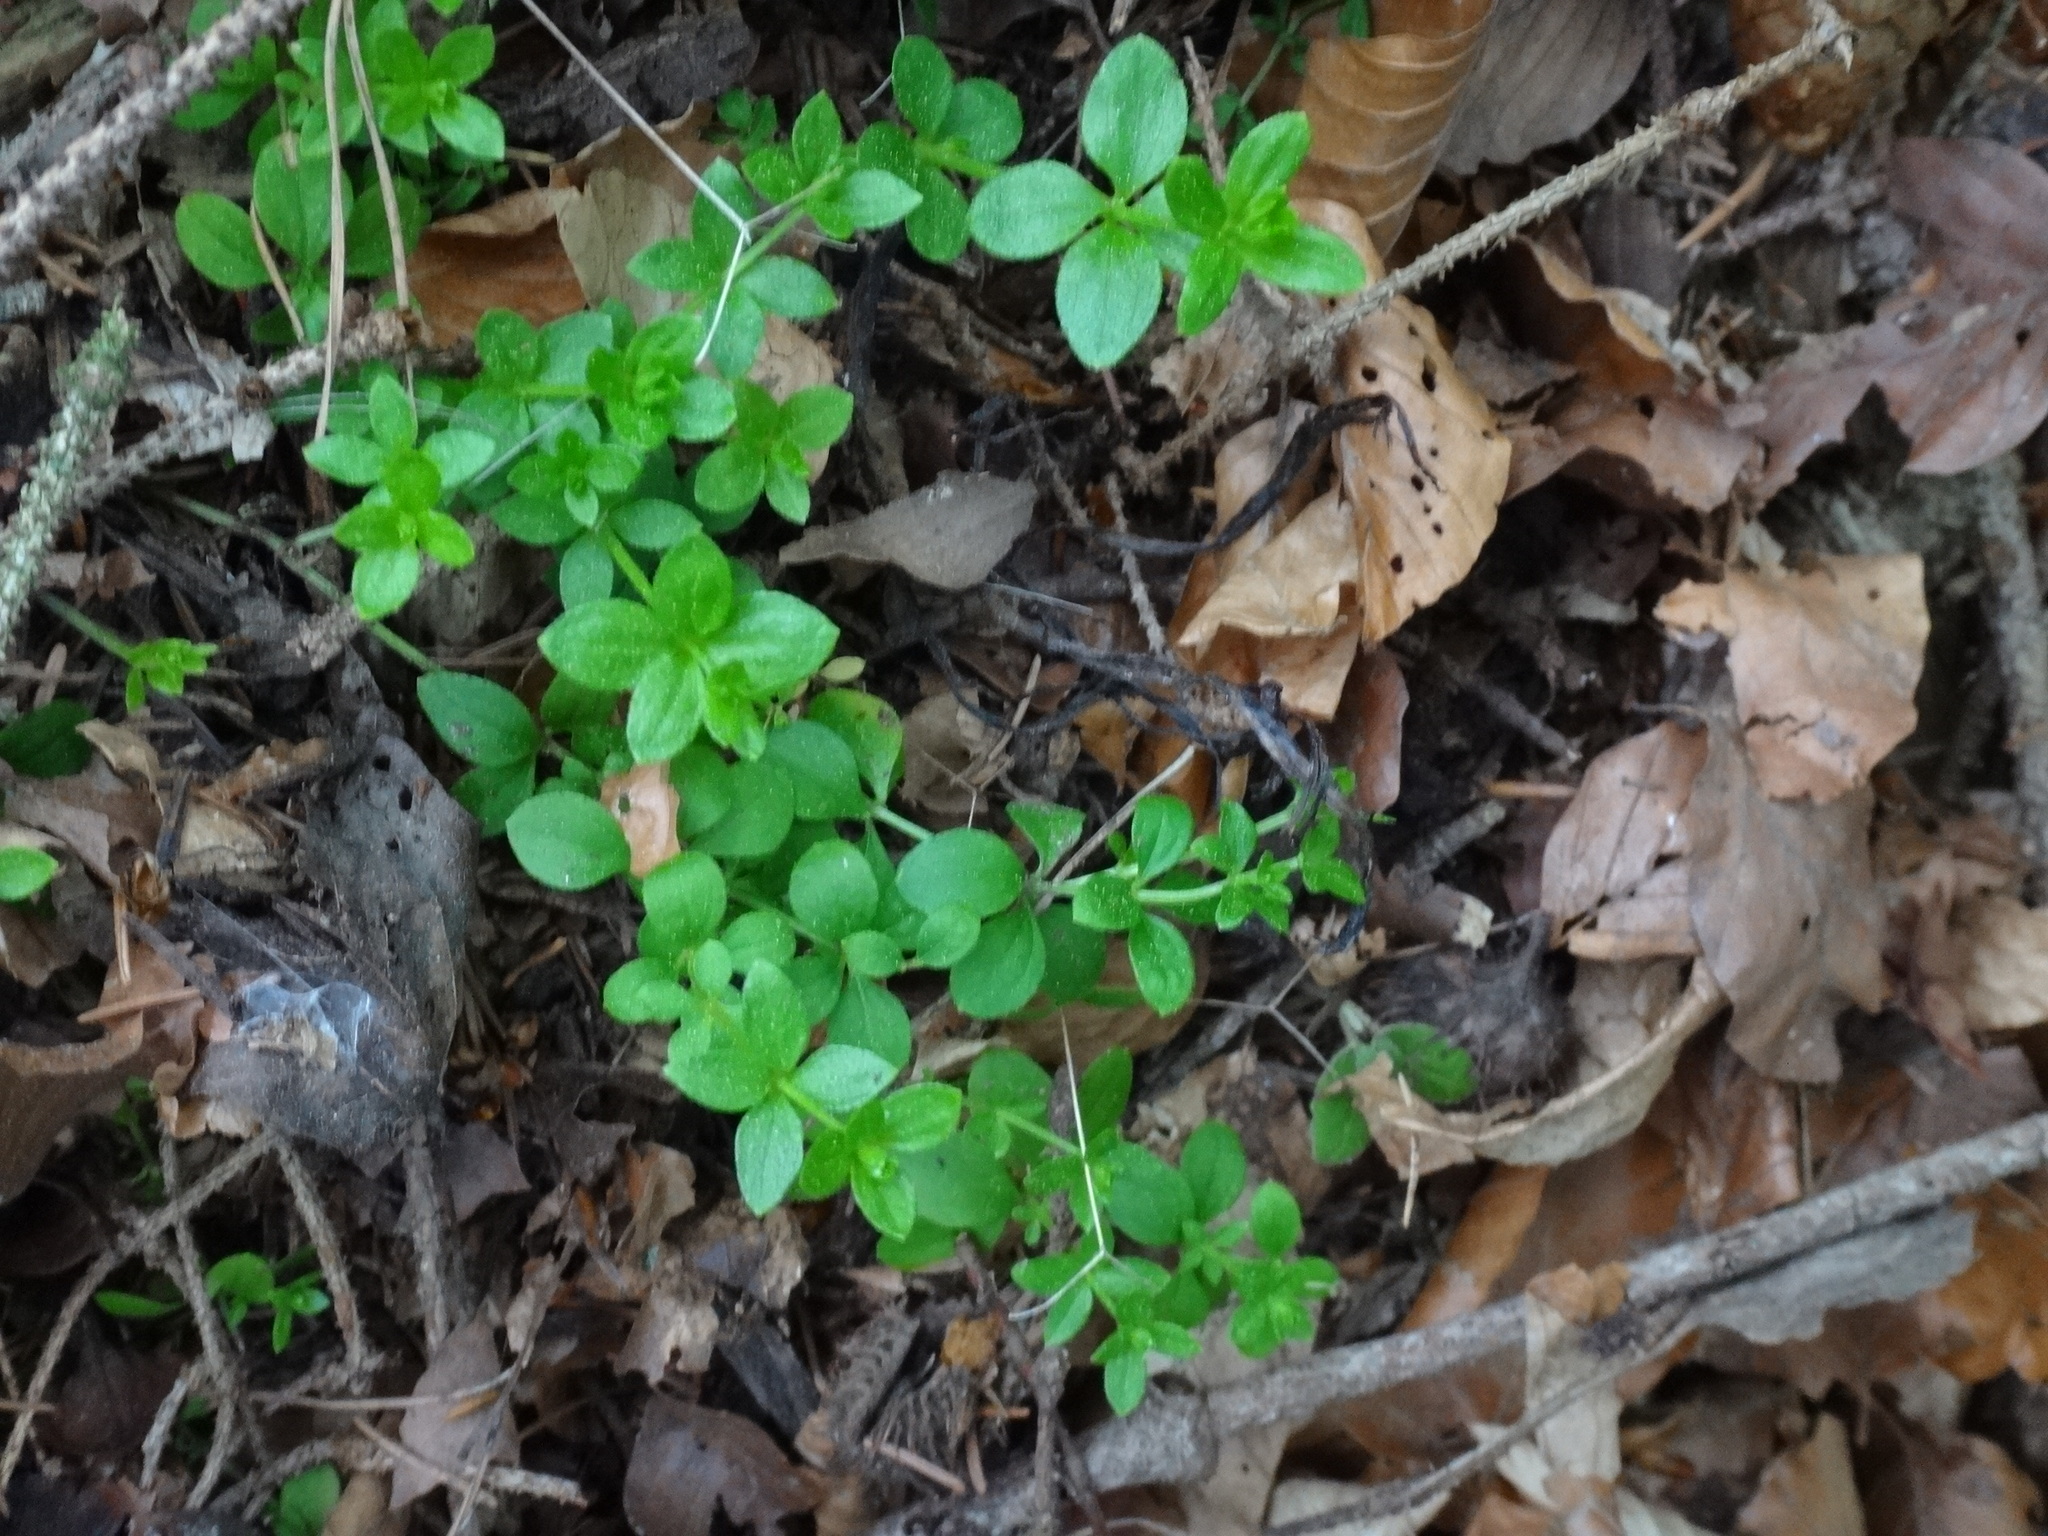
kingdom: Plantae
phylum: Tracheophyta
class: Magnoliopsida
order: Gentianales
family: Rubiaceae
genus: Galium
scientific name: Galium rotundifolium
